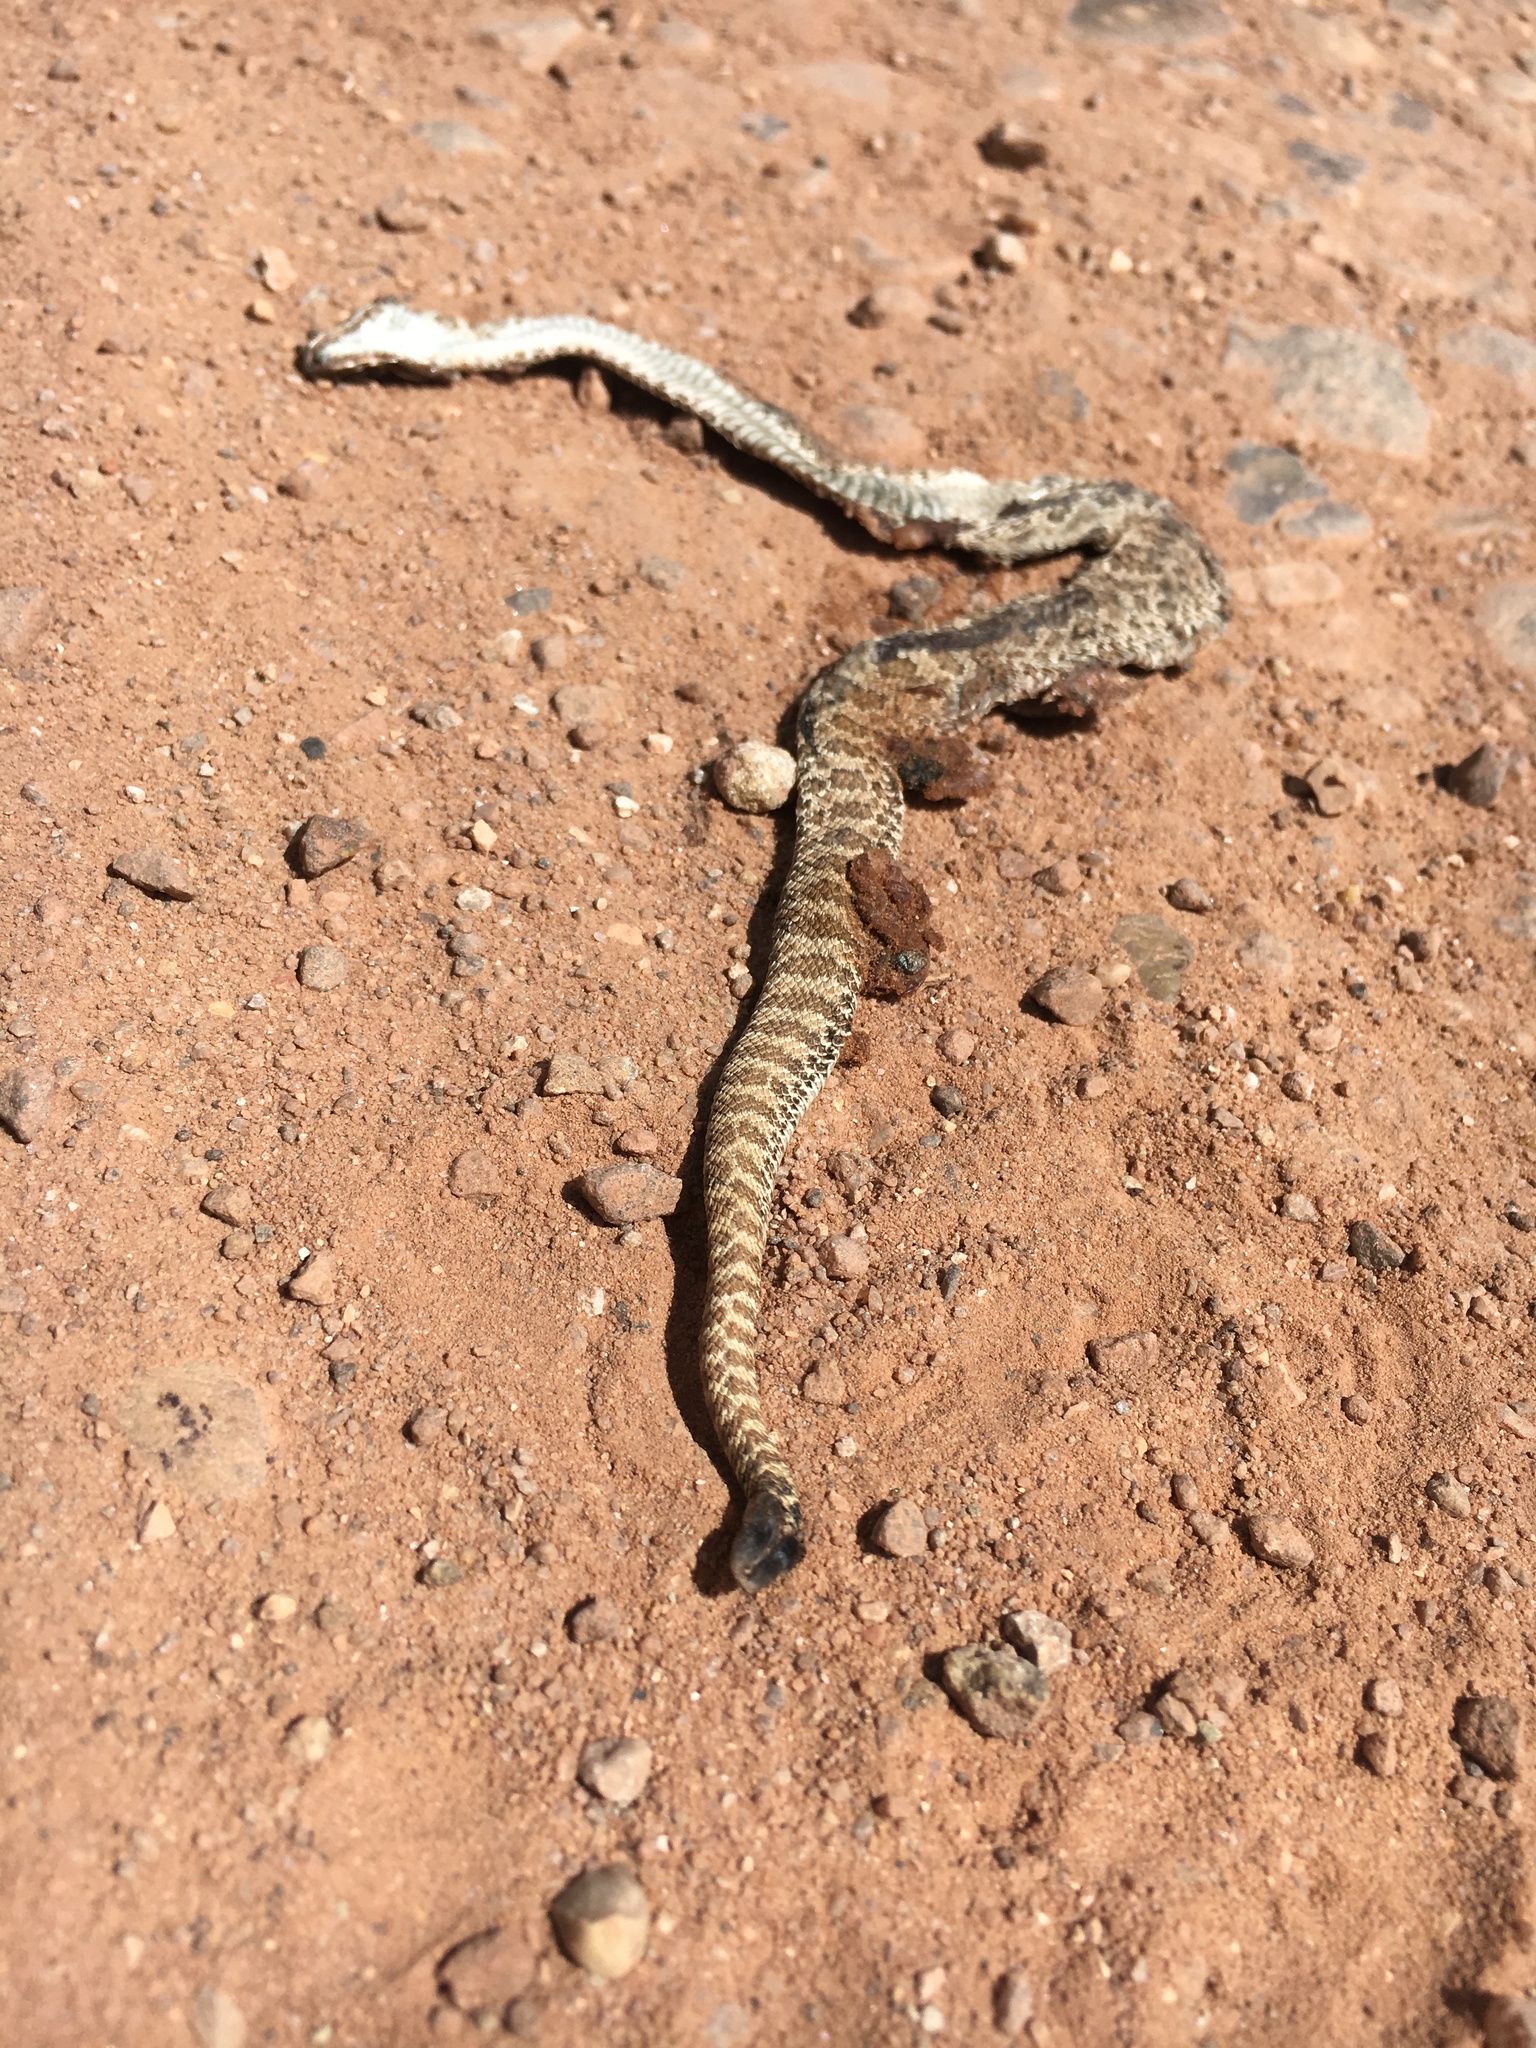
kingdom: Animalia
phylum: Chordata
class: Squamata
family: Viperidae
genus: Crotalus
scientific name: Crotalus viridis
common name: Prairie rattlesnake
